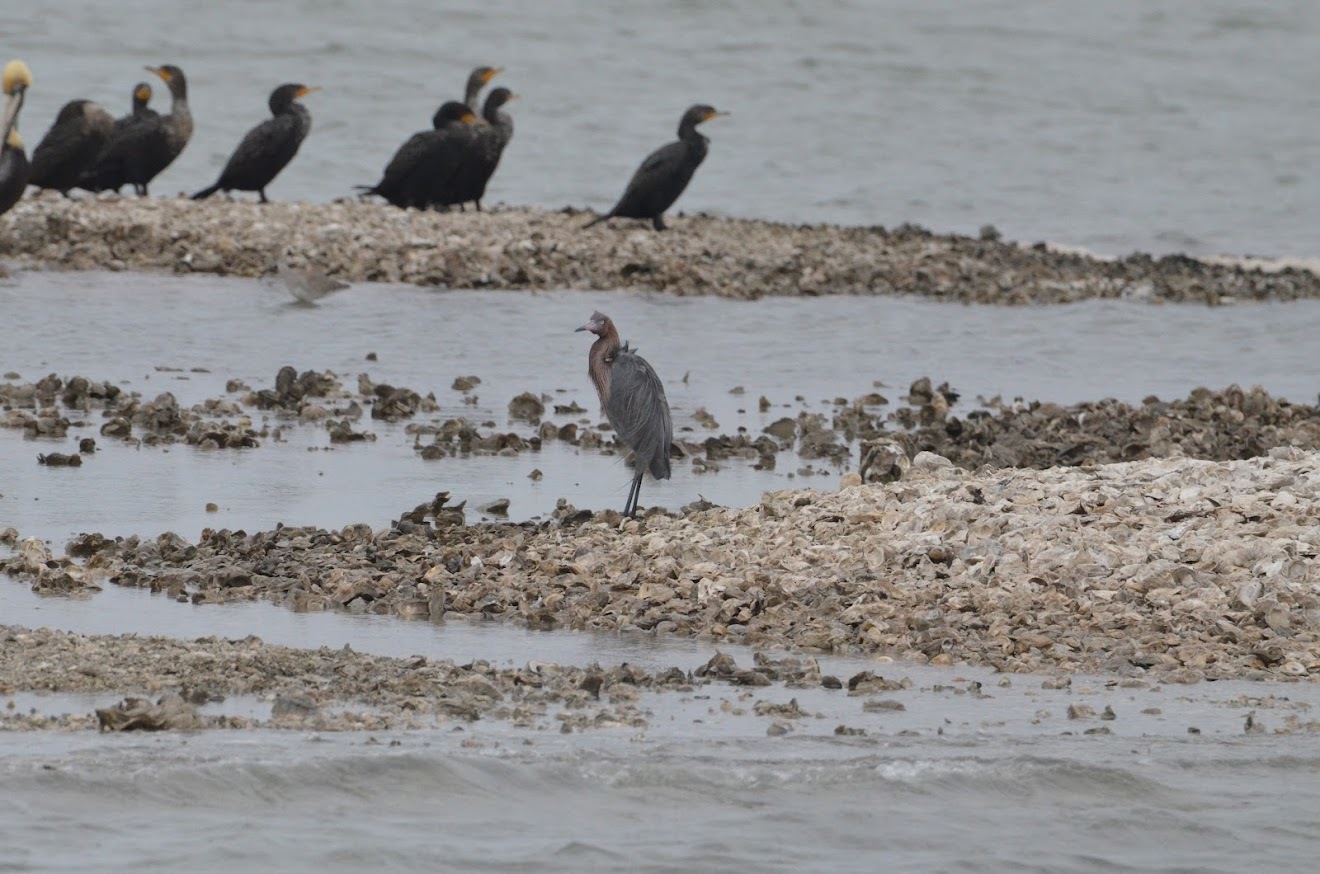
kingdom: Animalia
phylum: Chordata
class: Aves
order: Pelecaniformes
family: Ardeidae
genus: Egretta
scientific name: Egretta rufescens
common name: Reddish egret
